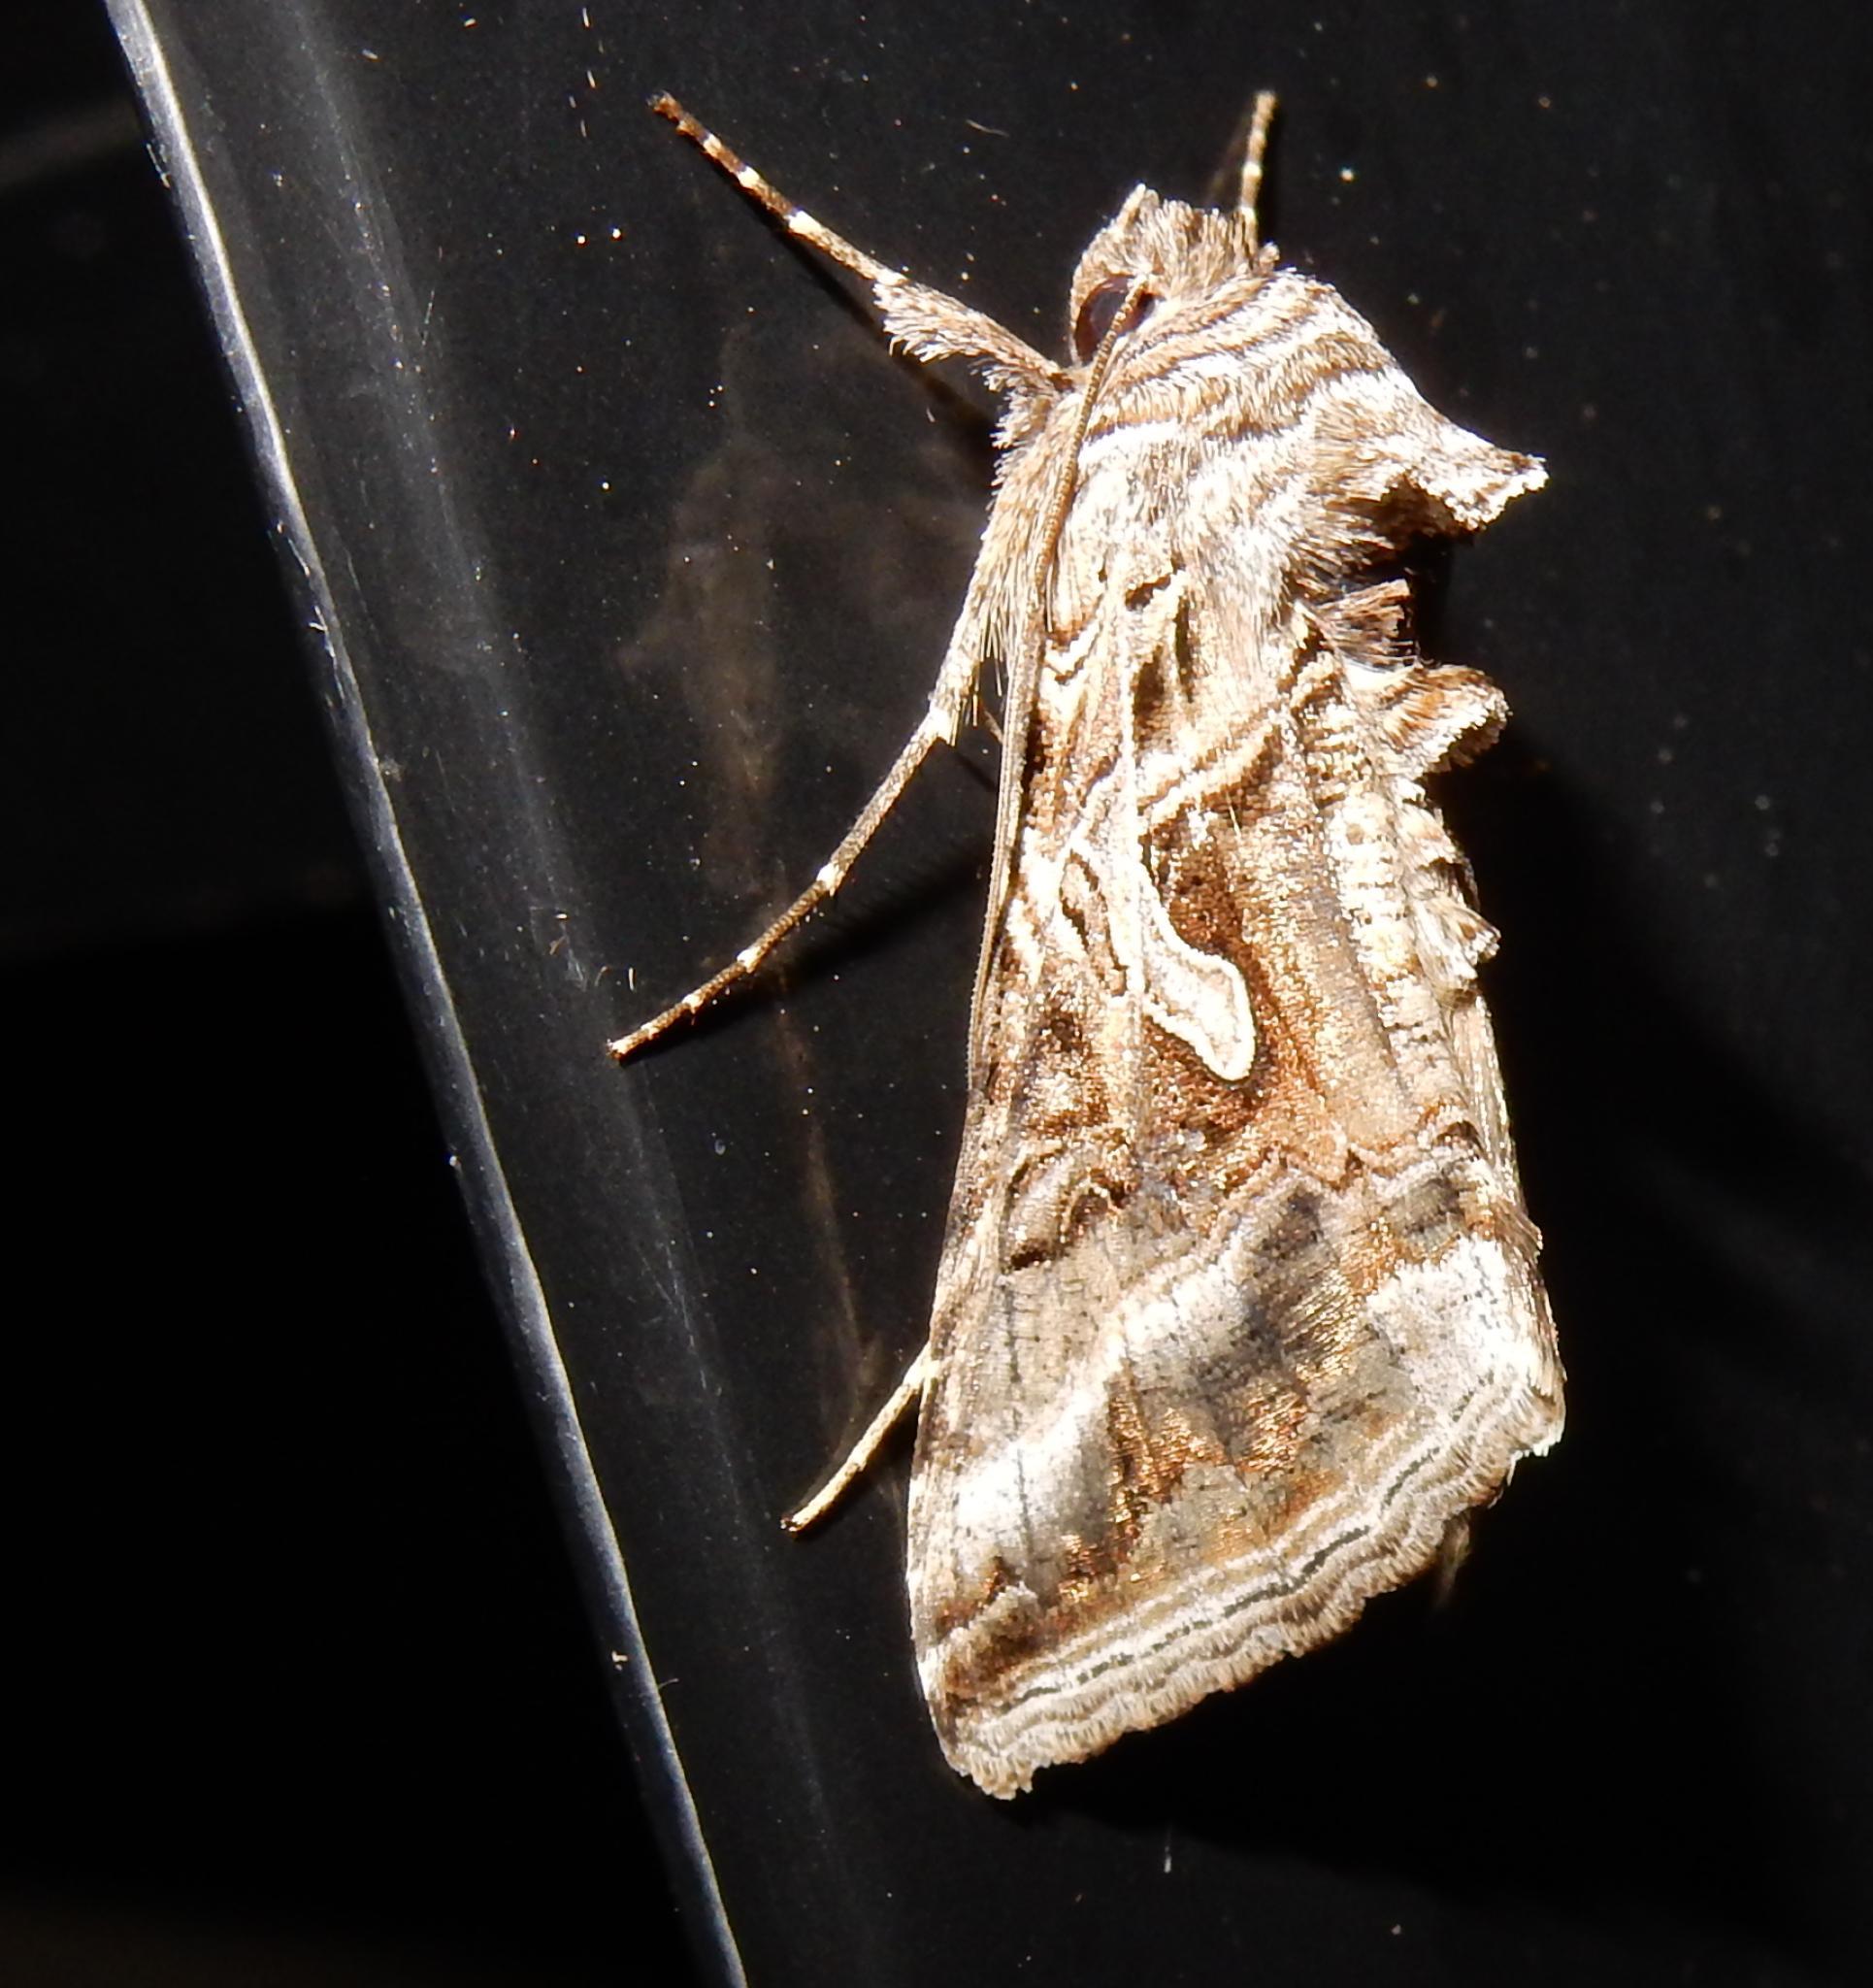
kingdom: Animalia
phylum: Arthropoda
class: Insecta
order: Lepidoptera
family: Noctuidae
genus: Cornutiplusia
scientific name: Cornutiplusia circumflexa
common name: Yorkshire y
